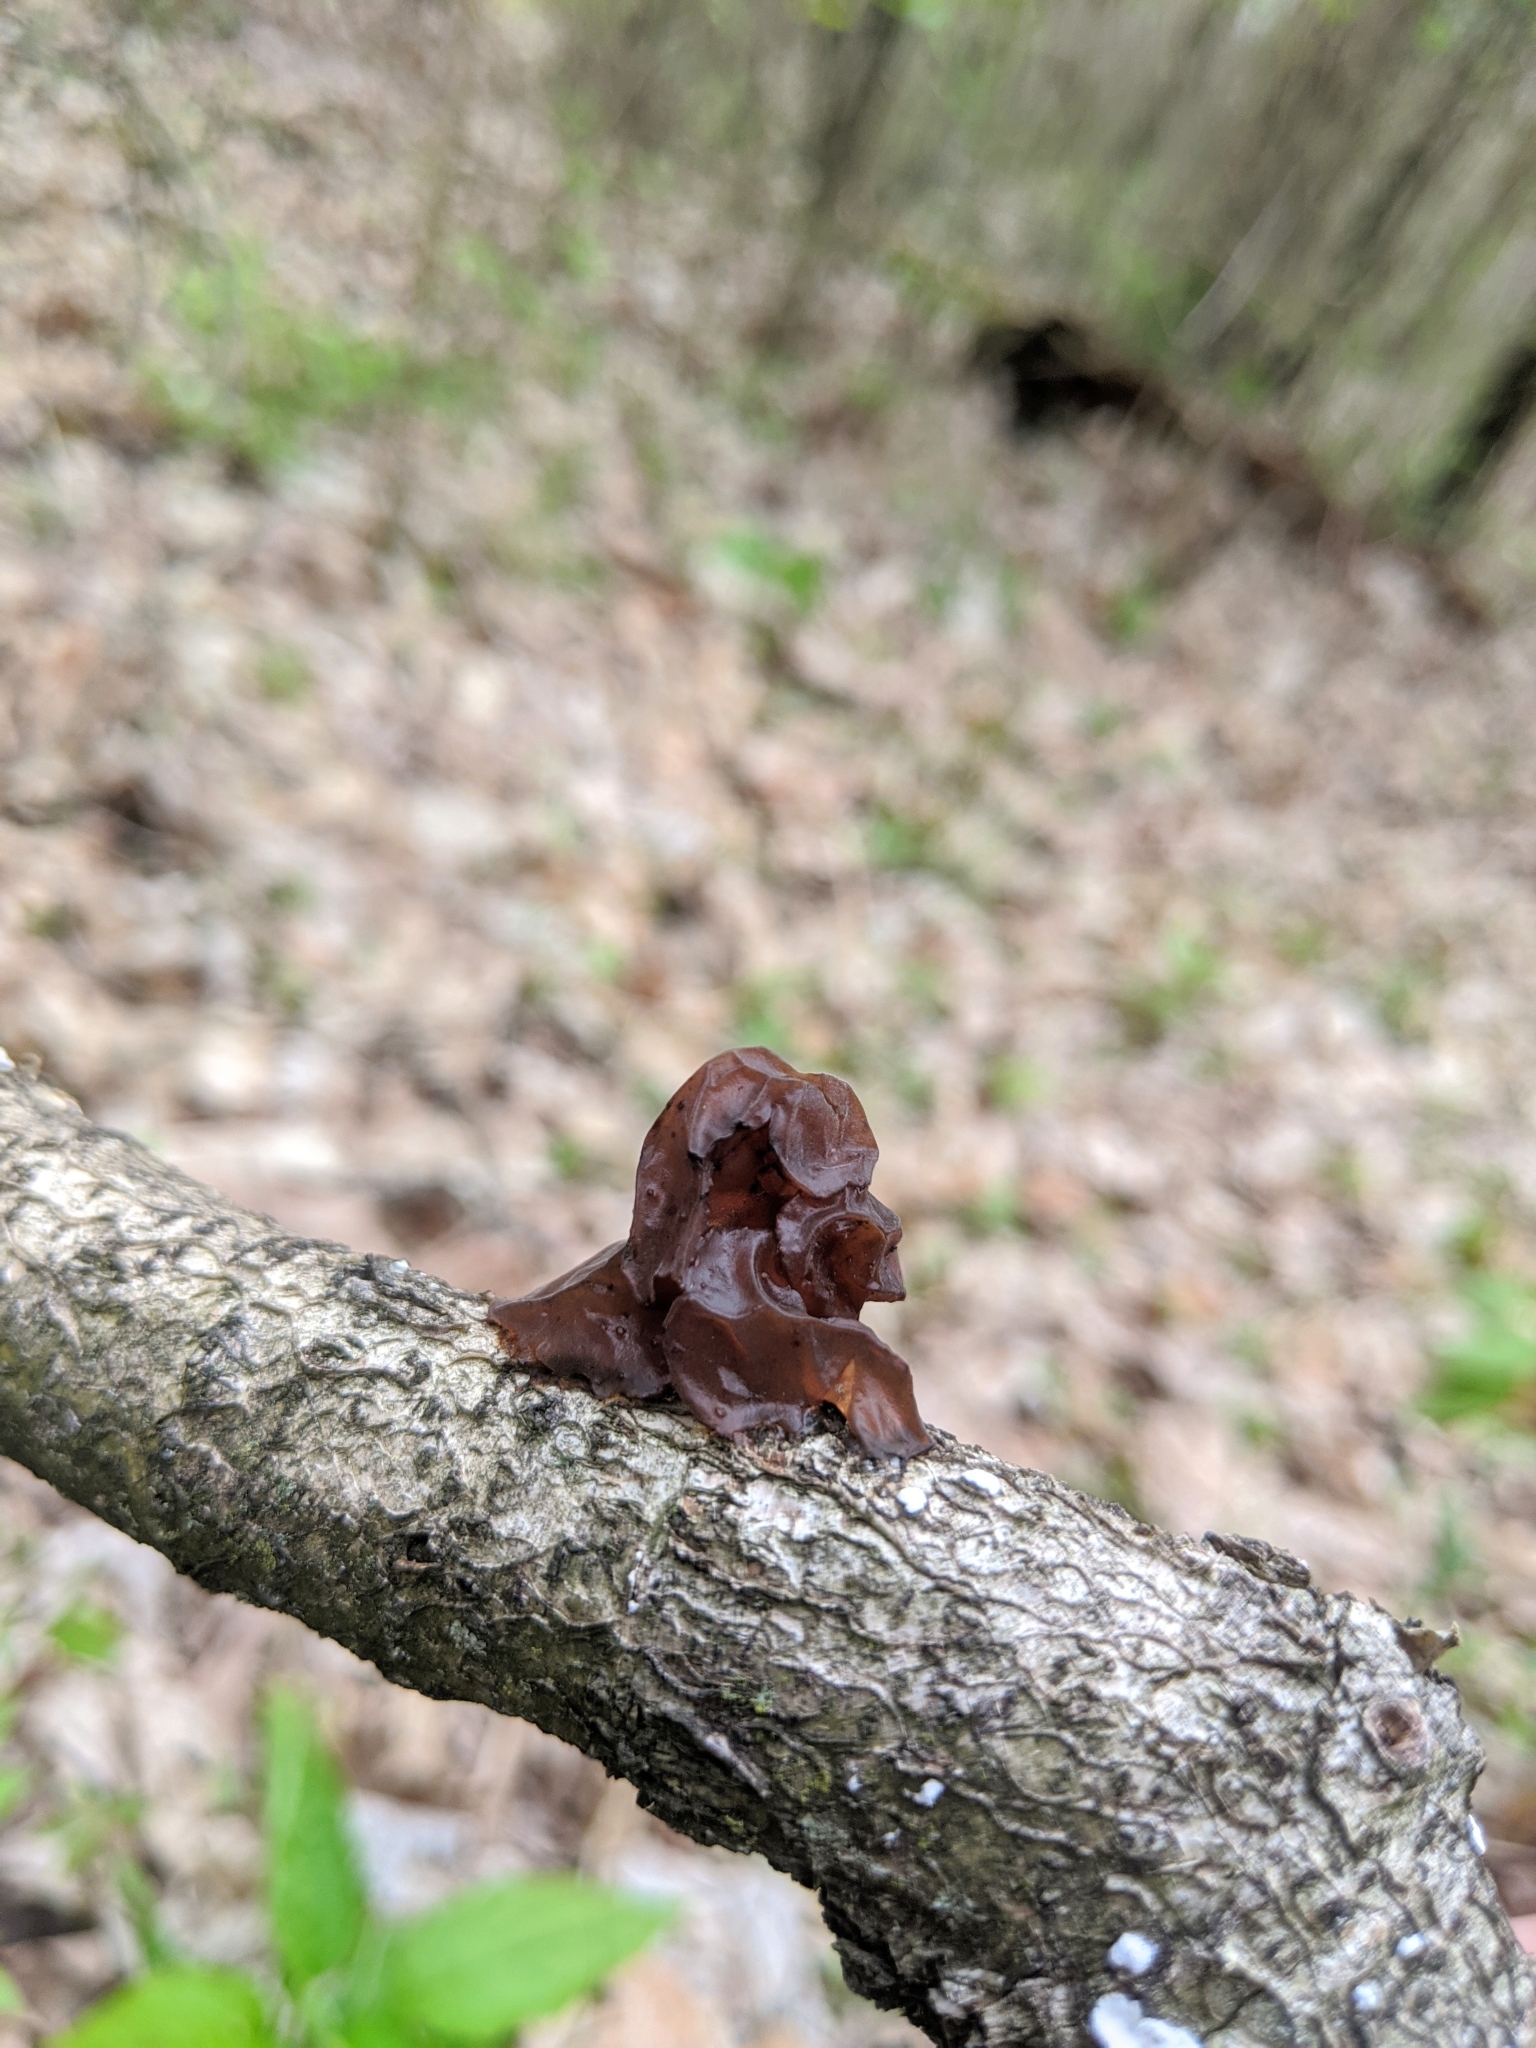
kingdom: Fungi
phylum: Basidiomycota
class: Agaricomycetes
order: Auriculariales
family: Auriculariaceae
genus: Exidia
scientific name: Exidia
